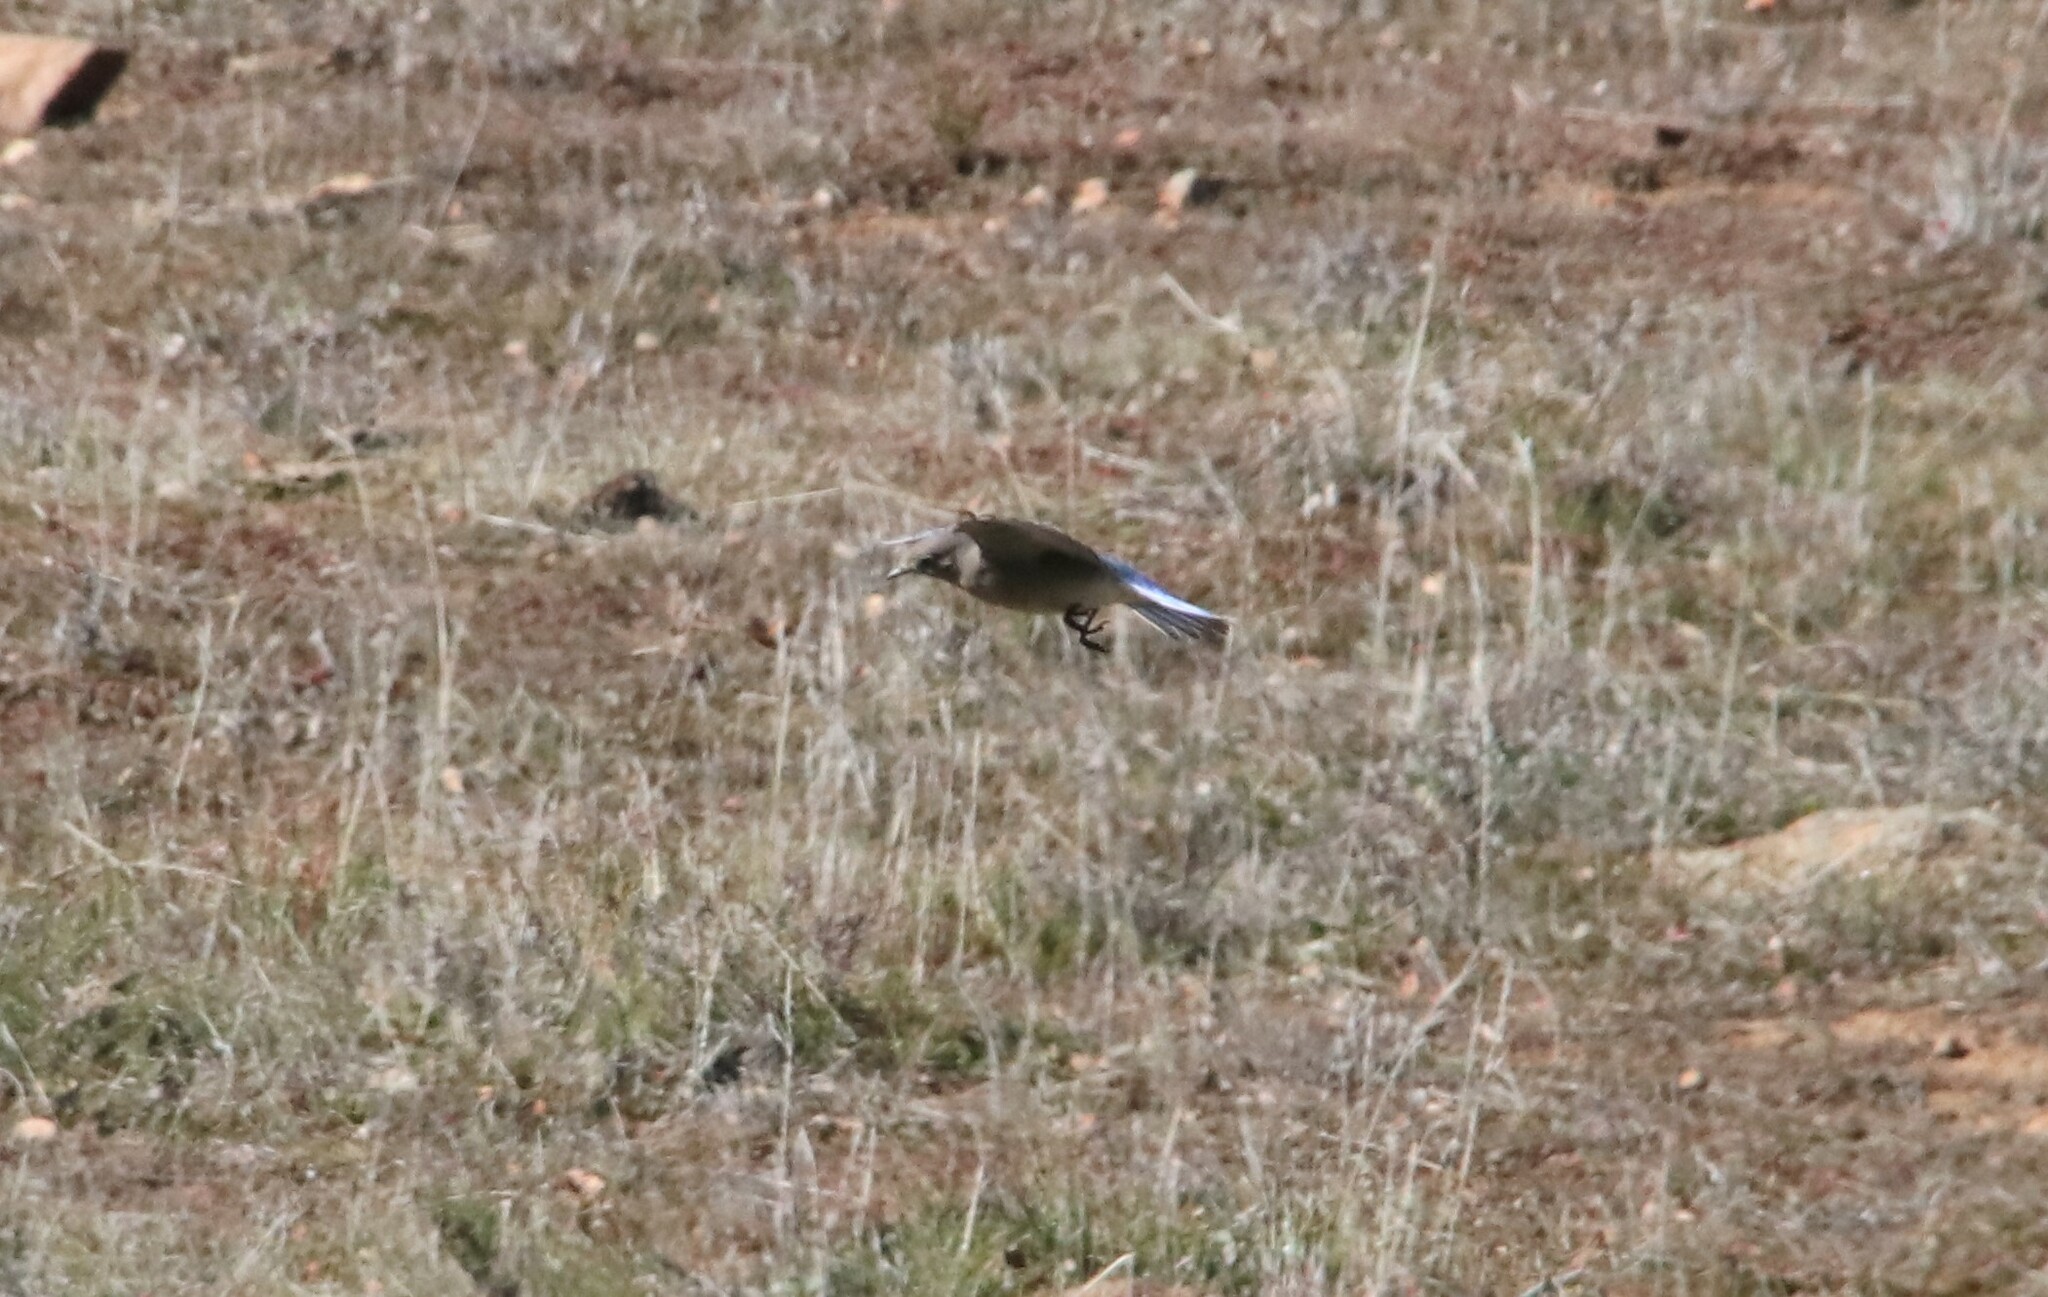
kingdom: Animalia
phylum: Chordata
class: Aves
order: Passeriformes
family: Turdidae
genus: Sialia
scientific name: Sialia currucoides
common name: Mountain bluebird
